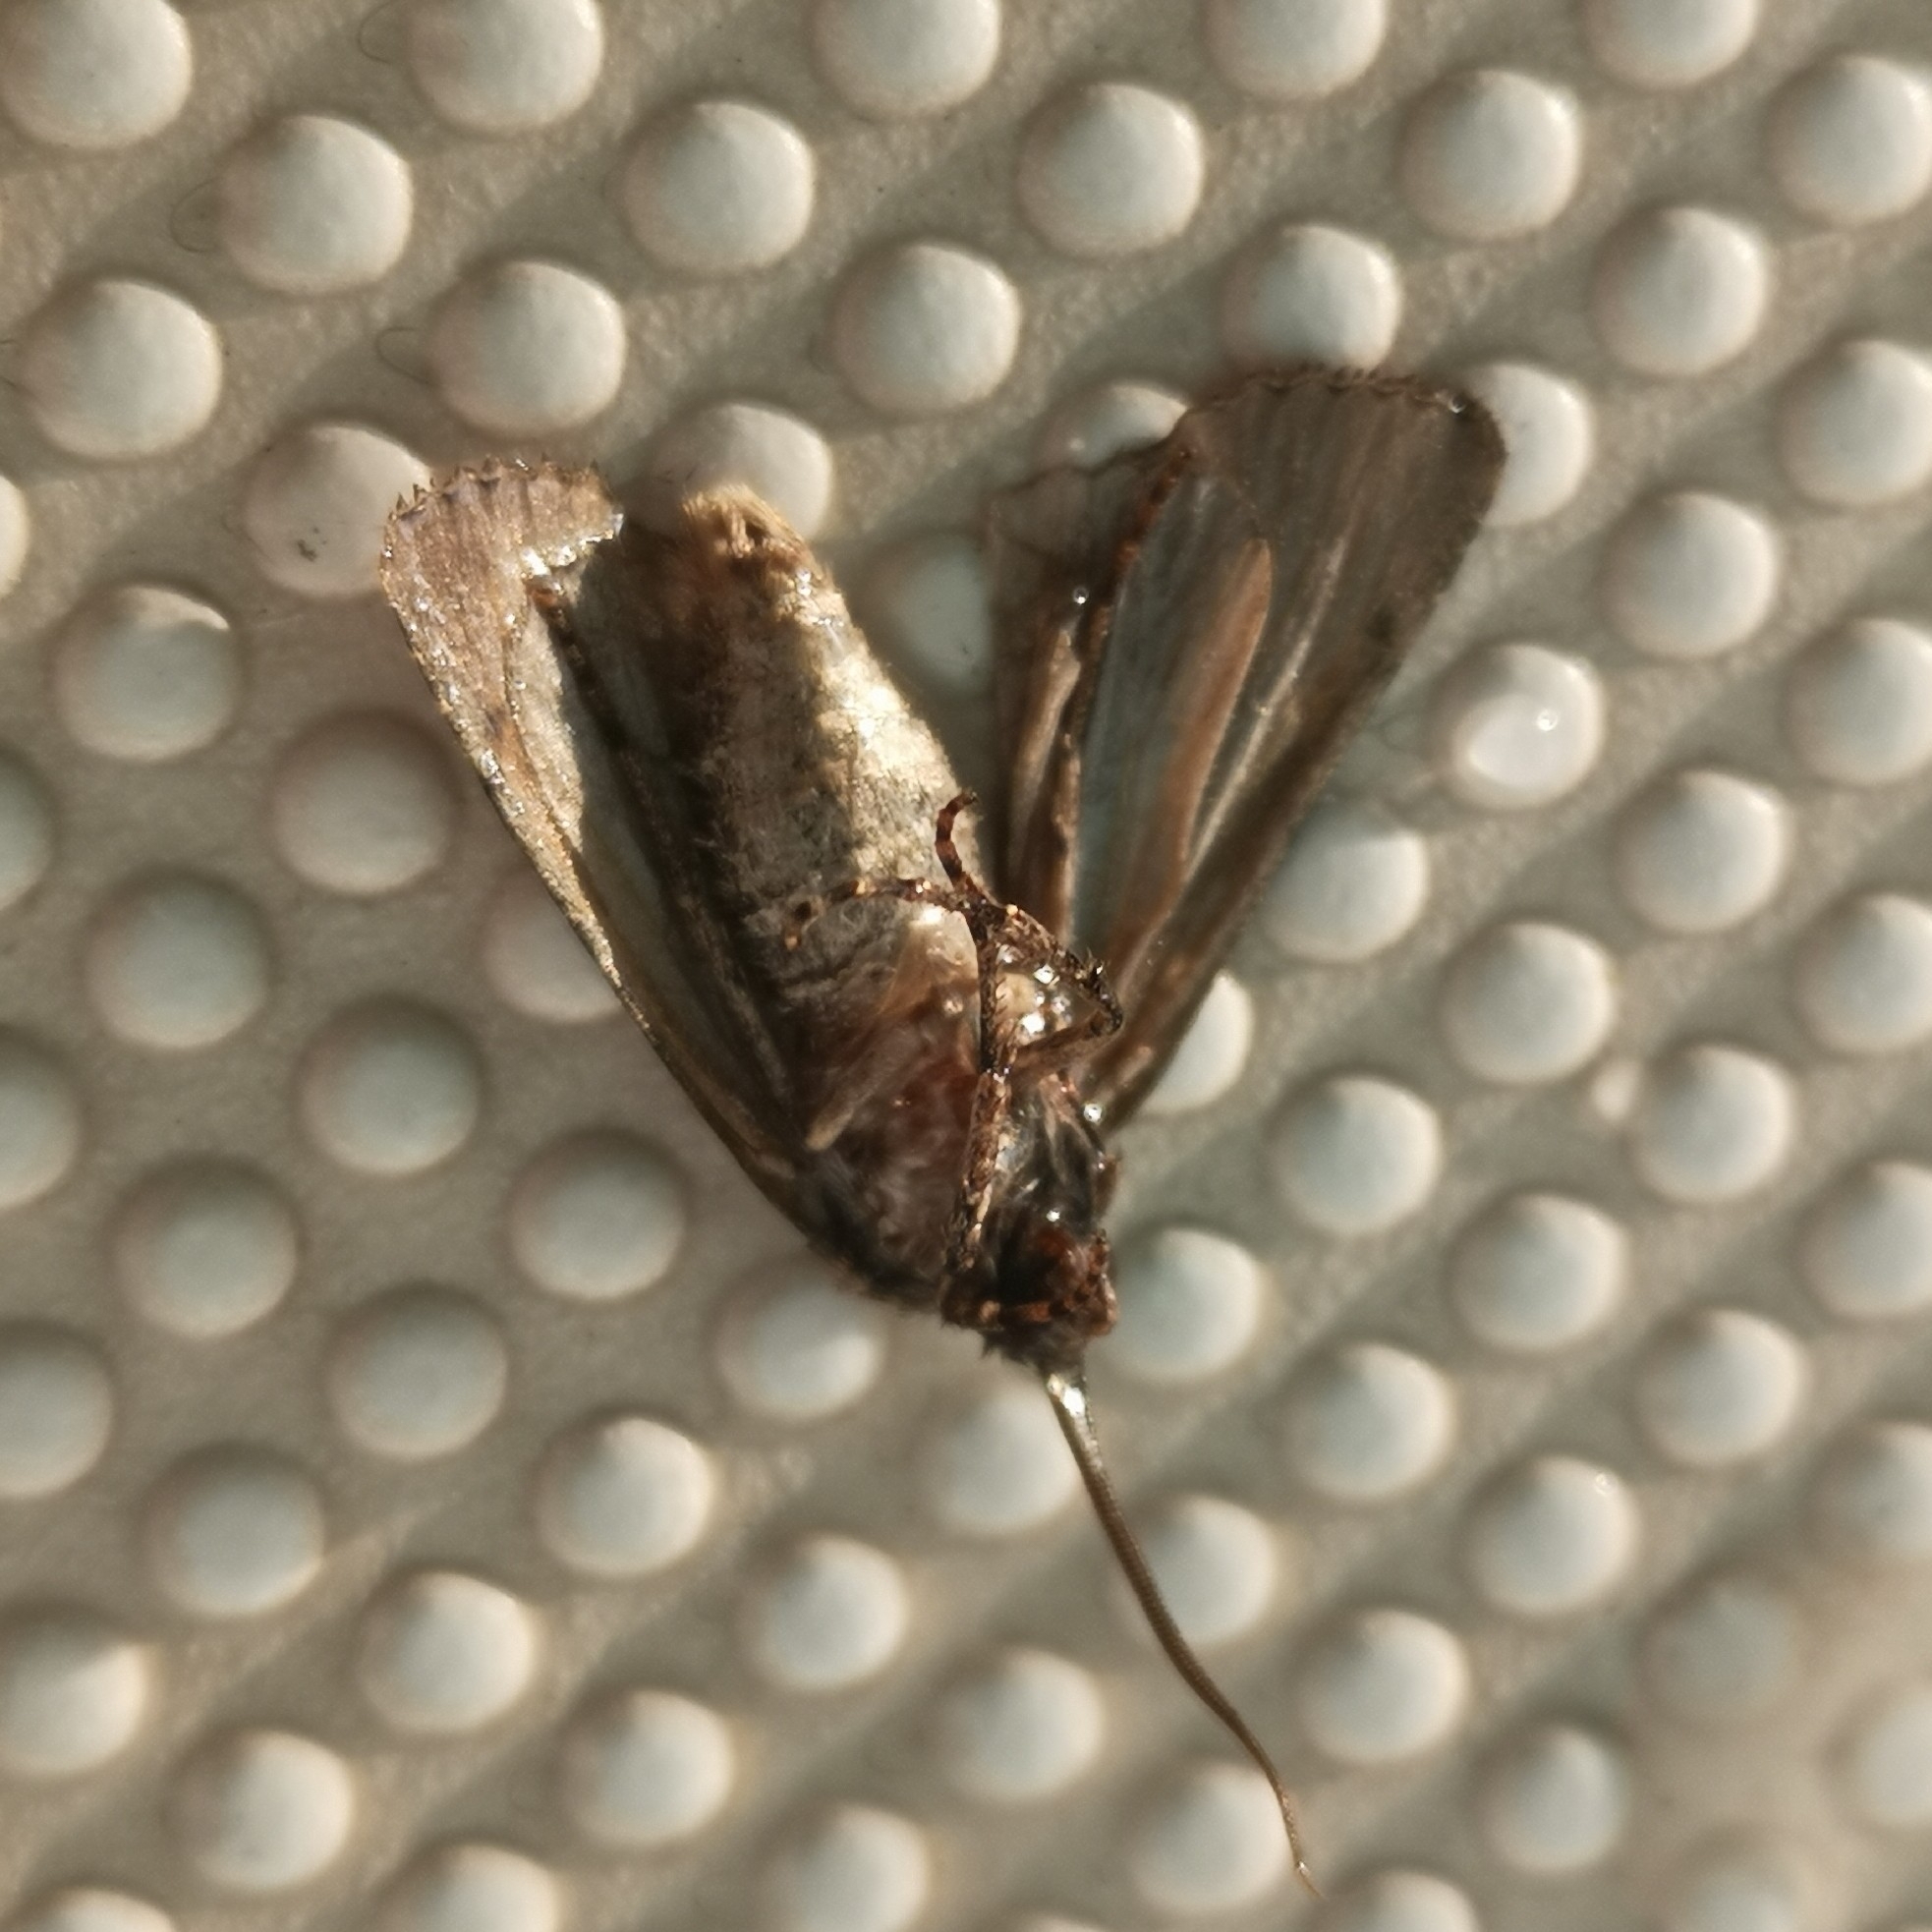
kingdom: Animalia
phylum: Arthropoda
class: Insecta
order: Lepidoptera
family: Noctuidae
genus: Euxoa
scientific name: Euxoa canariensis
